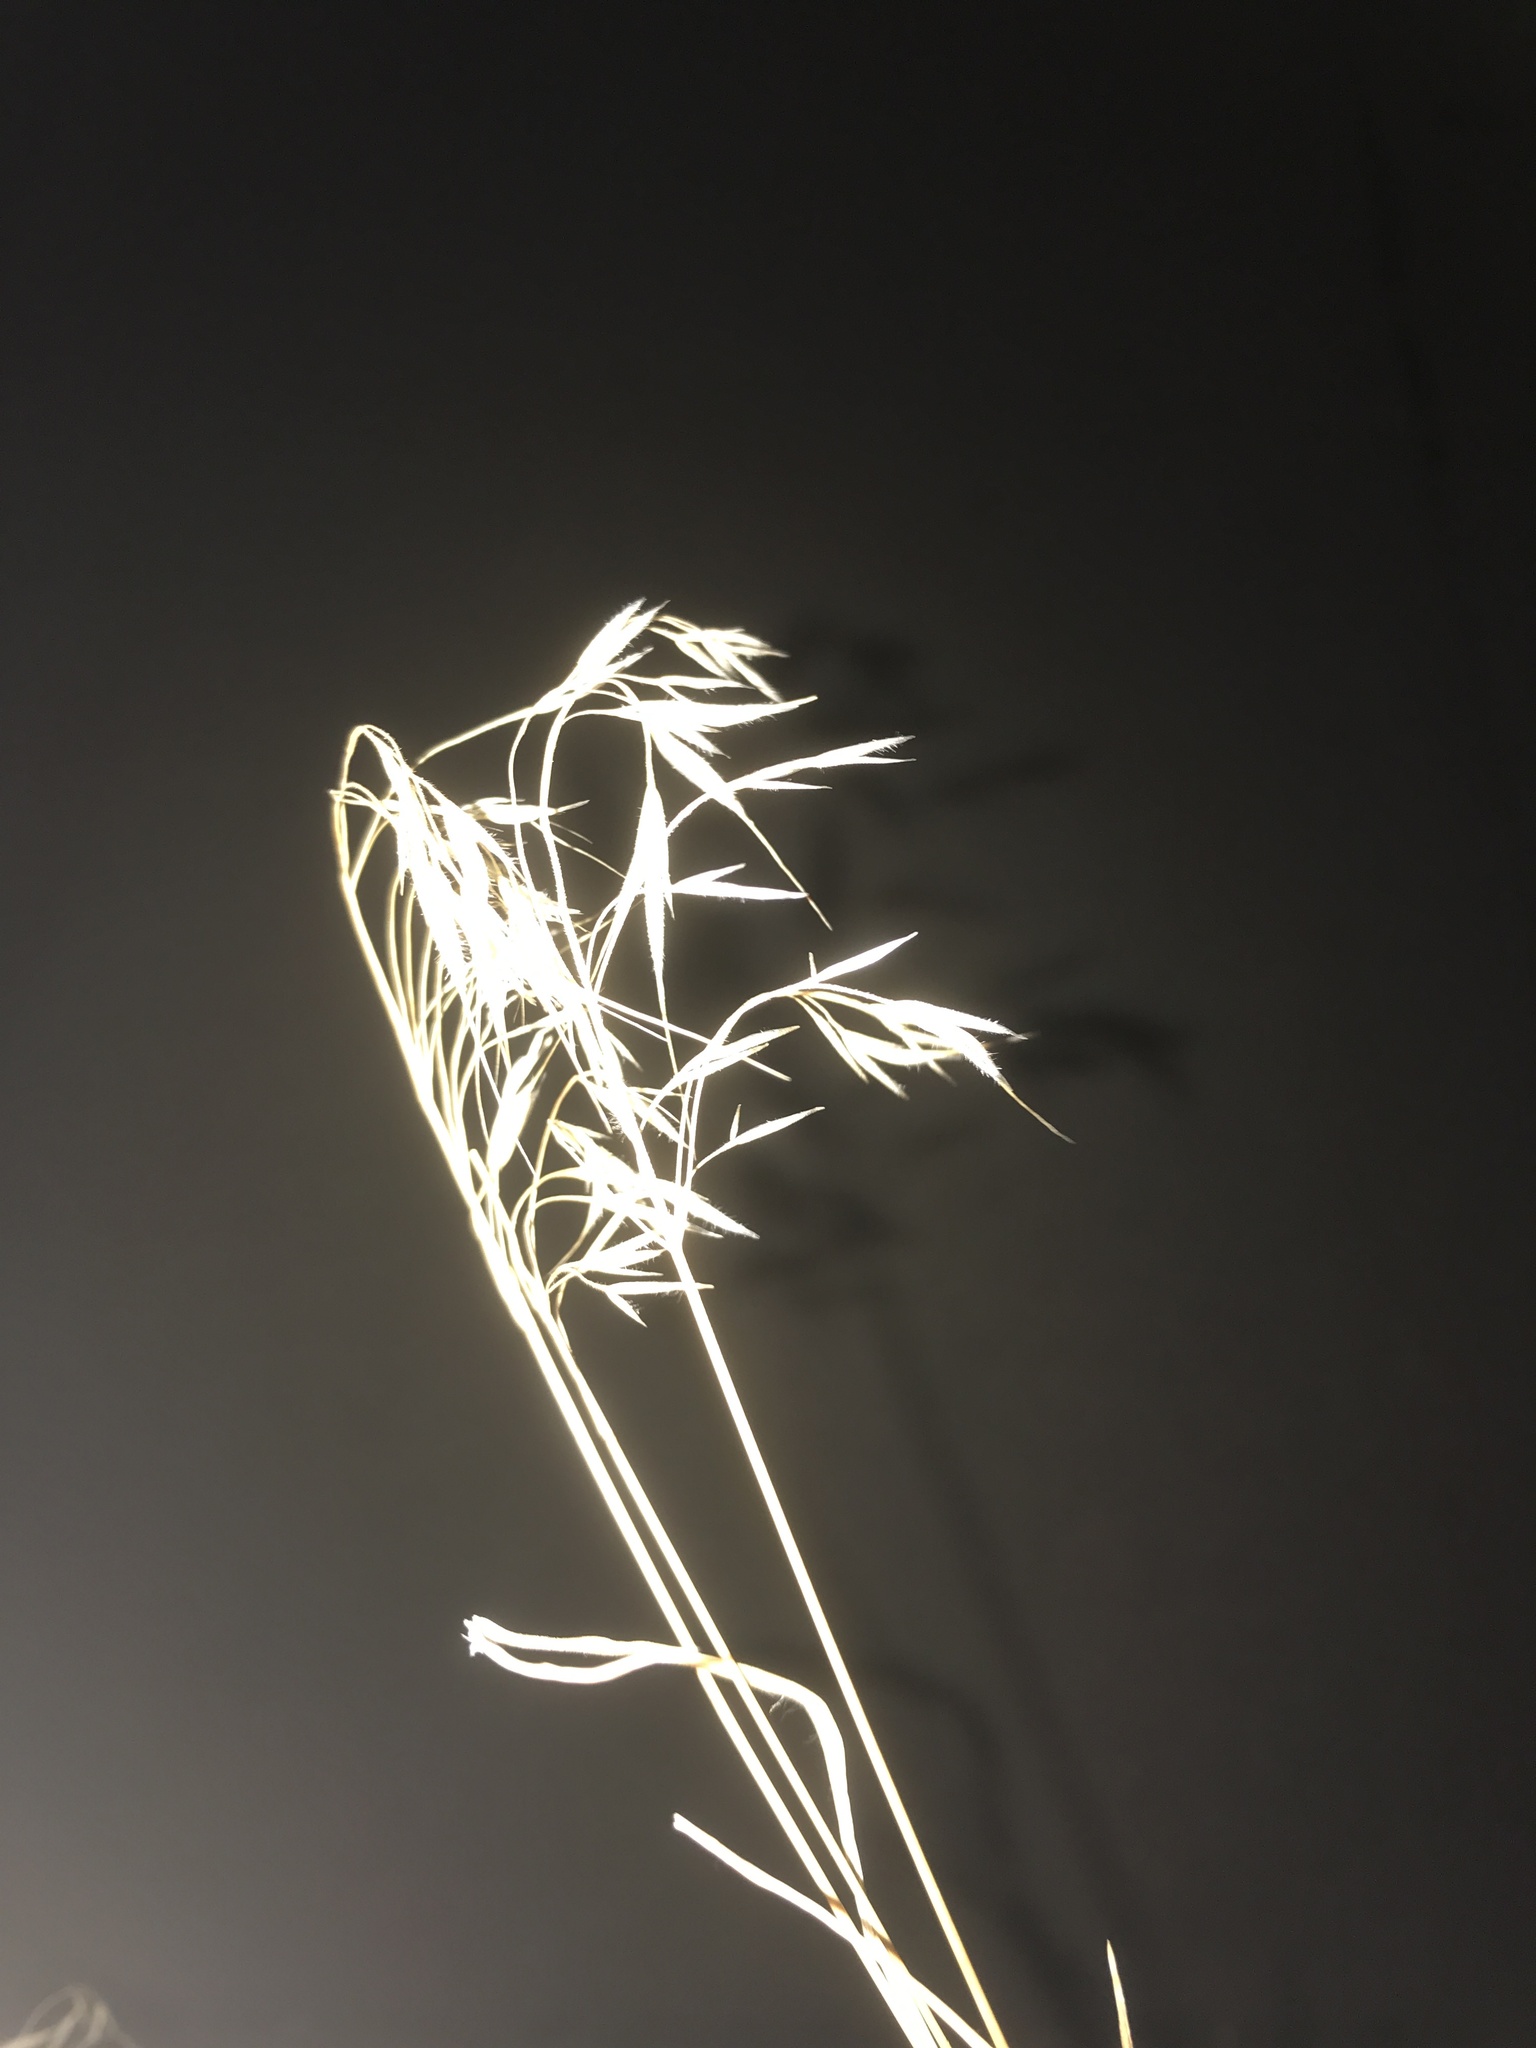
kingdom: Plantae
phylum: Tracheophyta
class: Liliopsida
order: Poales
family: Poaceae
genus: Bromus
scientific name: Bromus tectorum
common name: Cheatgrass
